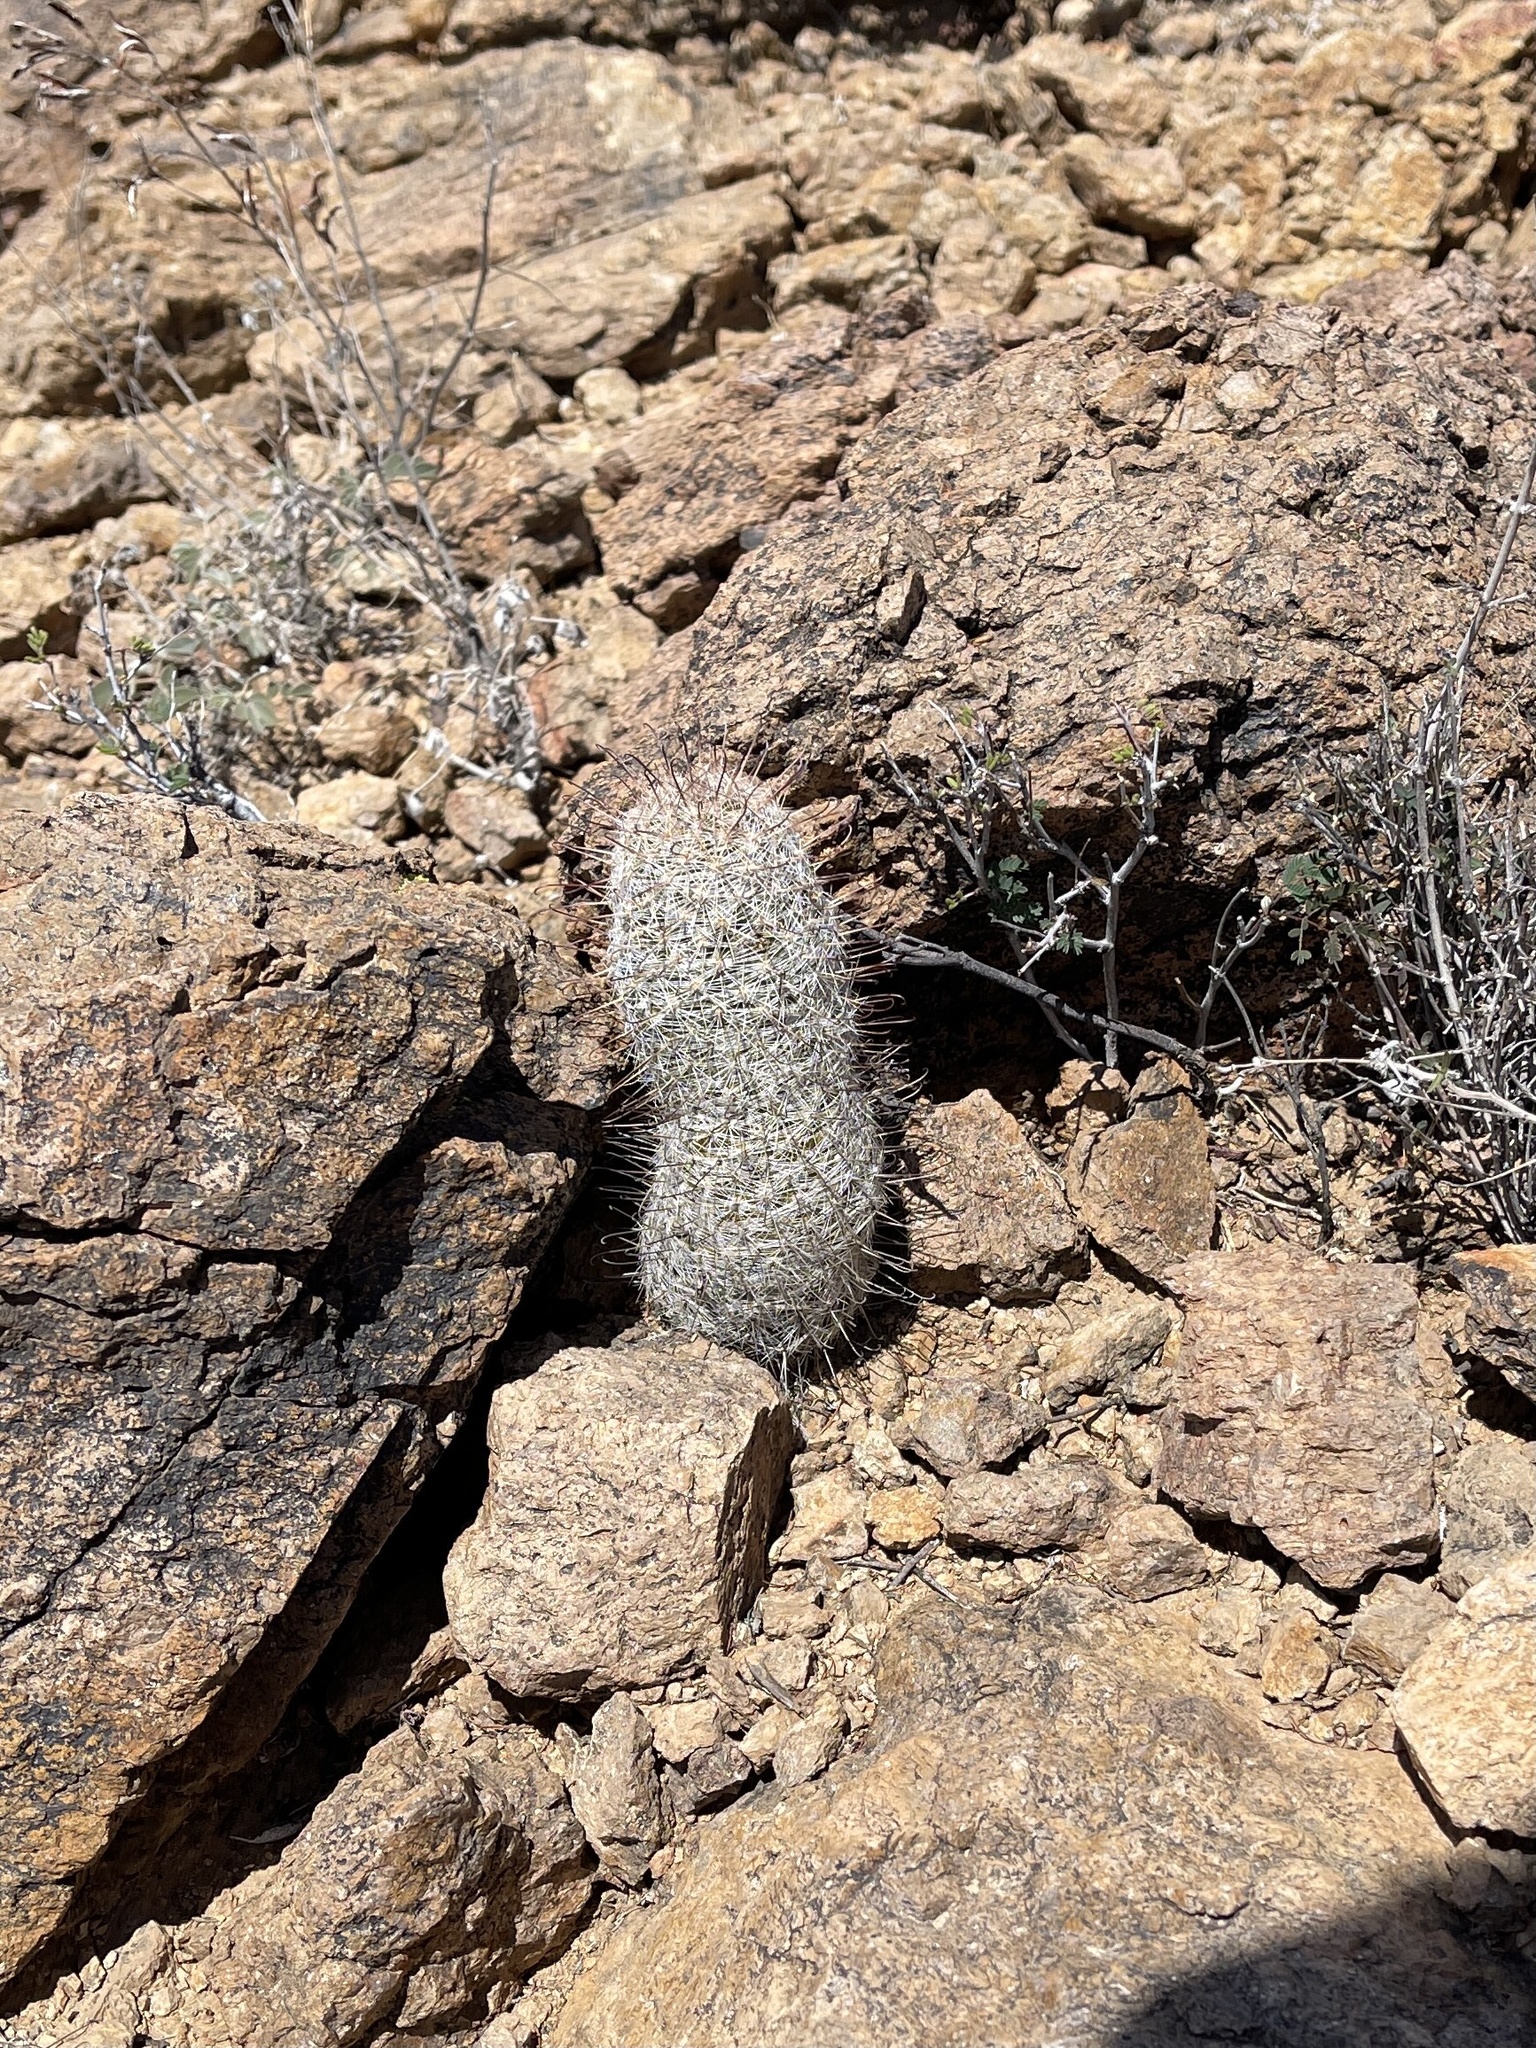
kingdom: Plantae
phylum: Tracheophyta
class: Magnoliopsida
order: Caryophyllales
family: Cactaceae
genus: Cochemiea
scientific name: Cochemiea grahamii
